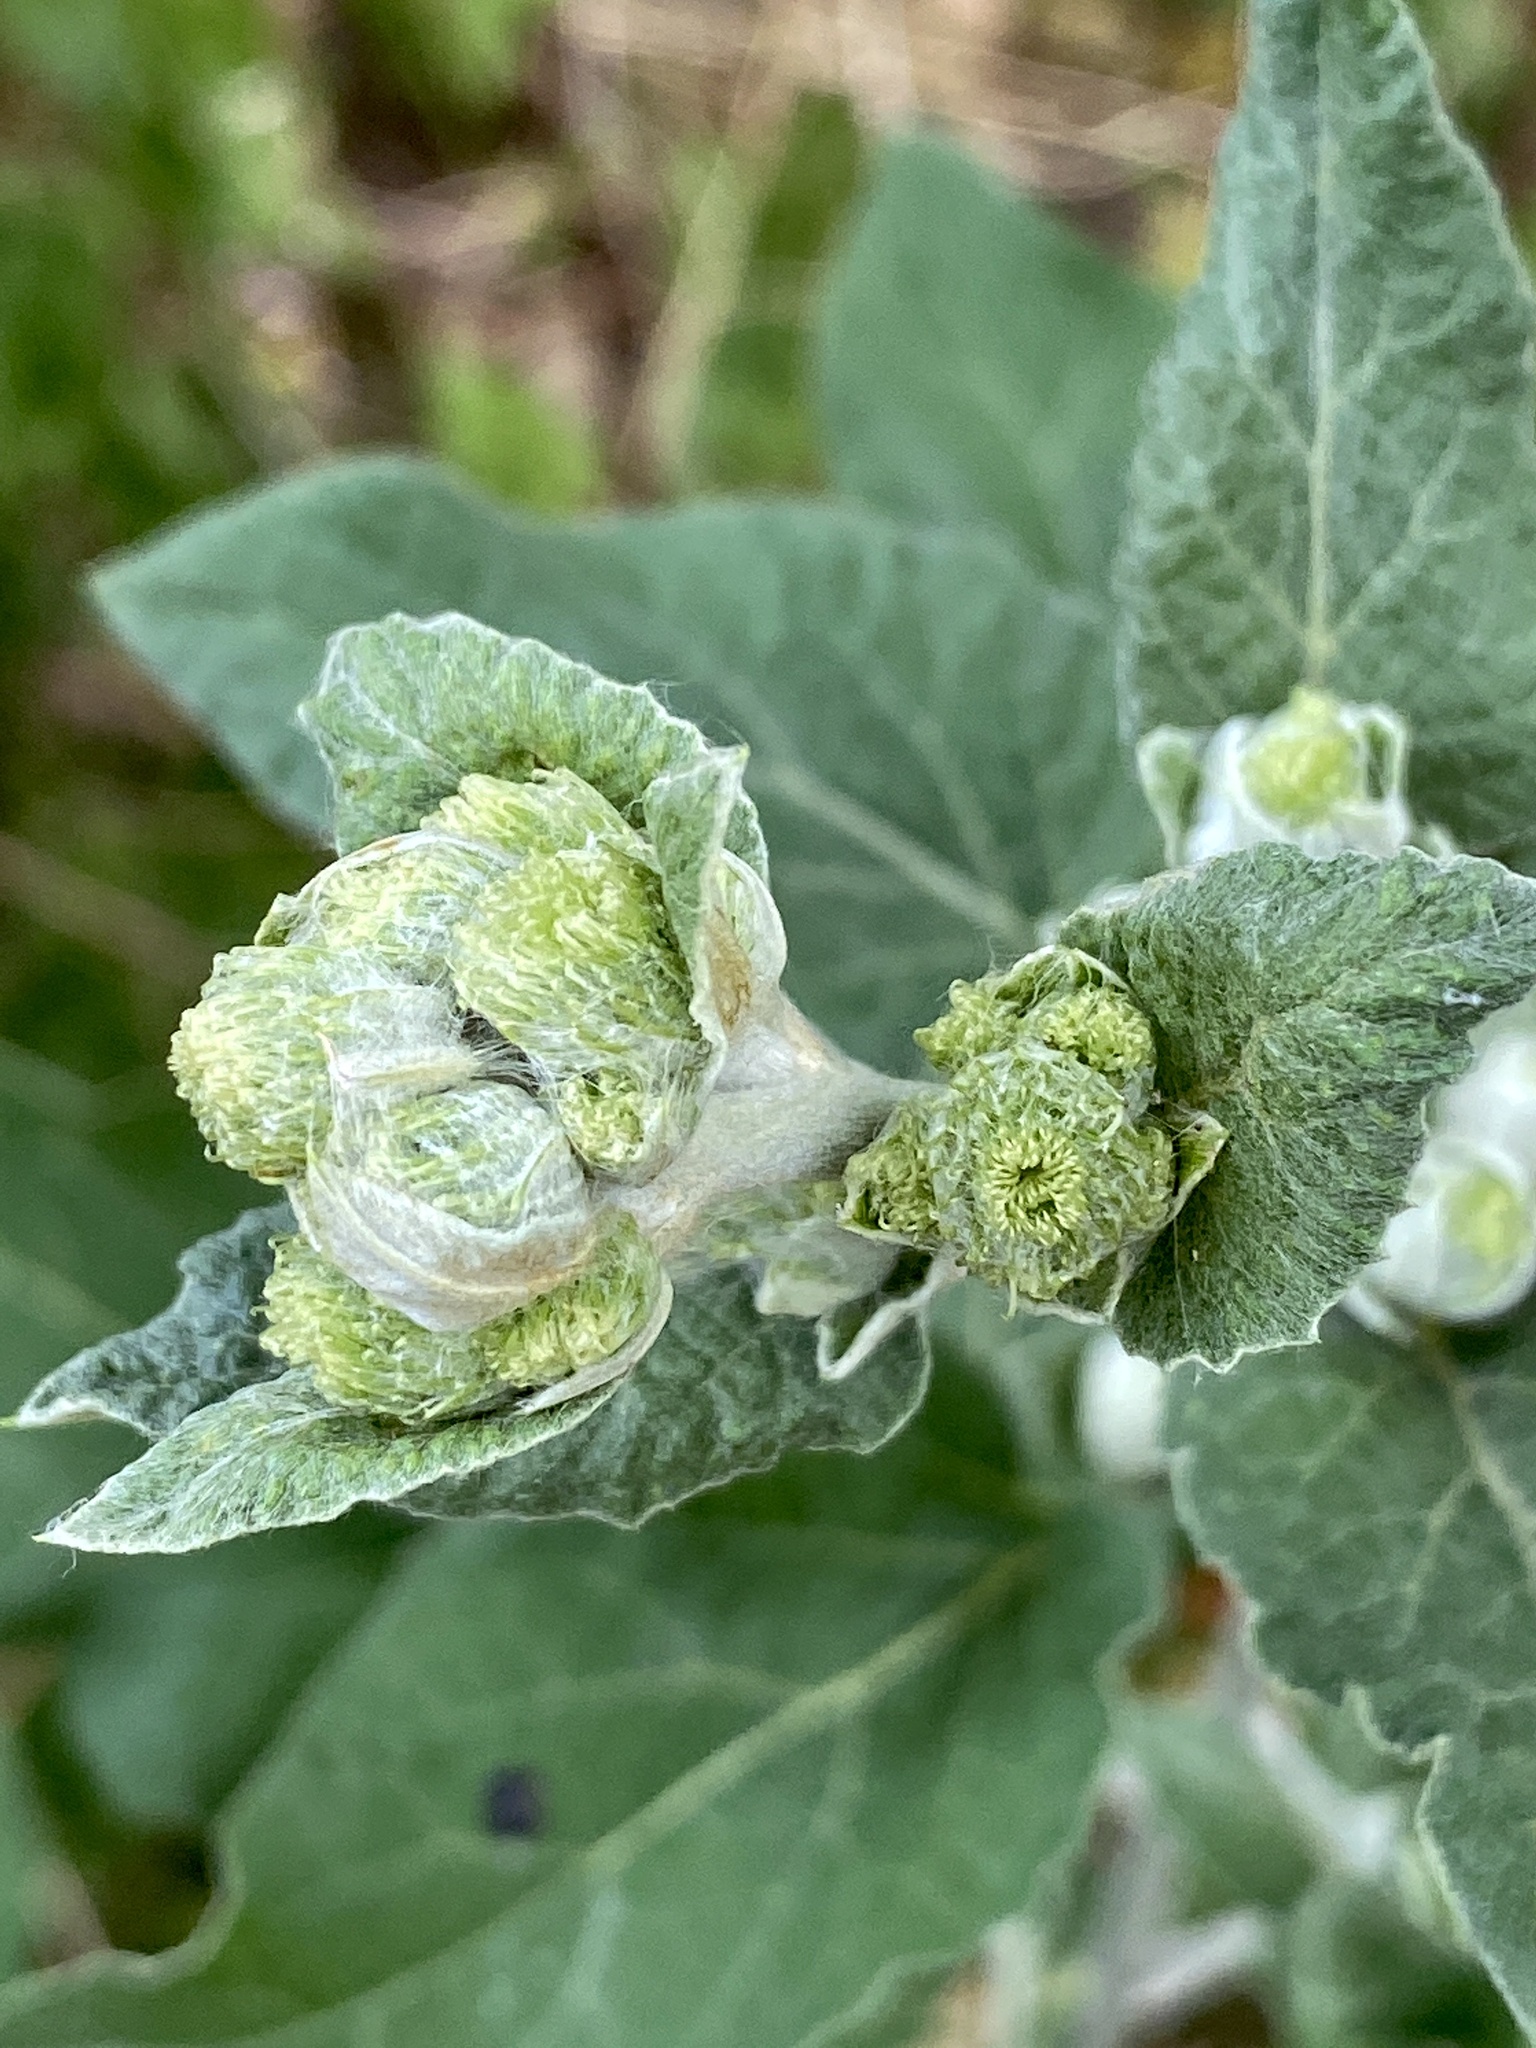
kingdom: Plantae
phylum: Tracheophyta
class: Magnoliopsida
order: Asterales
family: Asteraceae
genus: Arctium
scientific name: Arctium minus
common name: Lesser burdock
